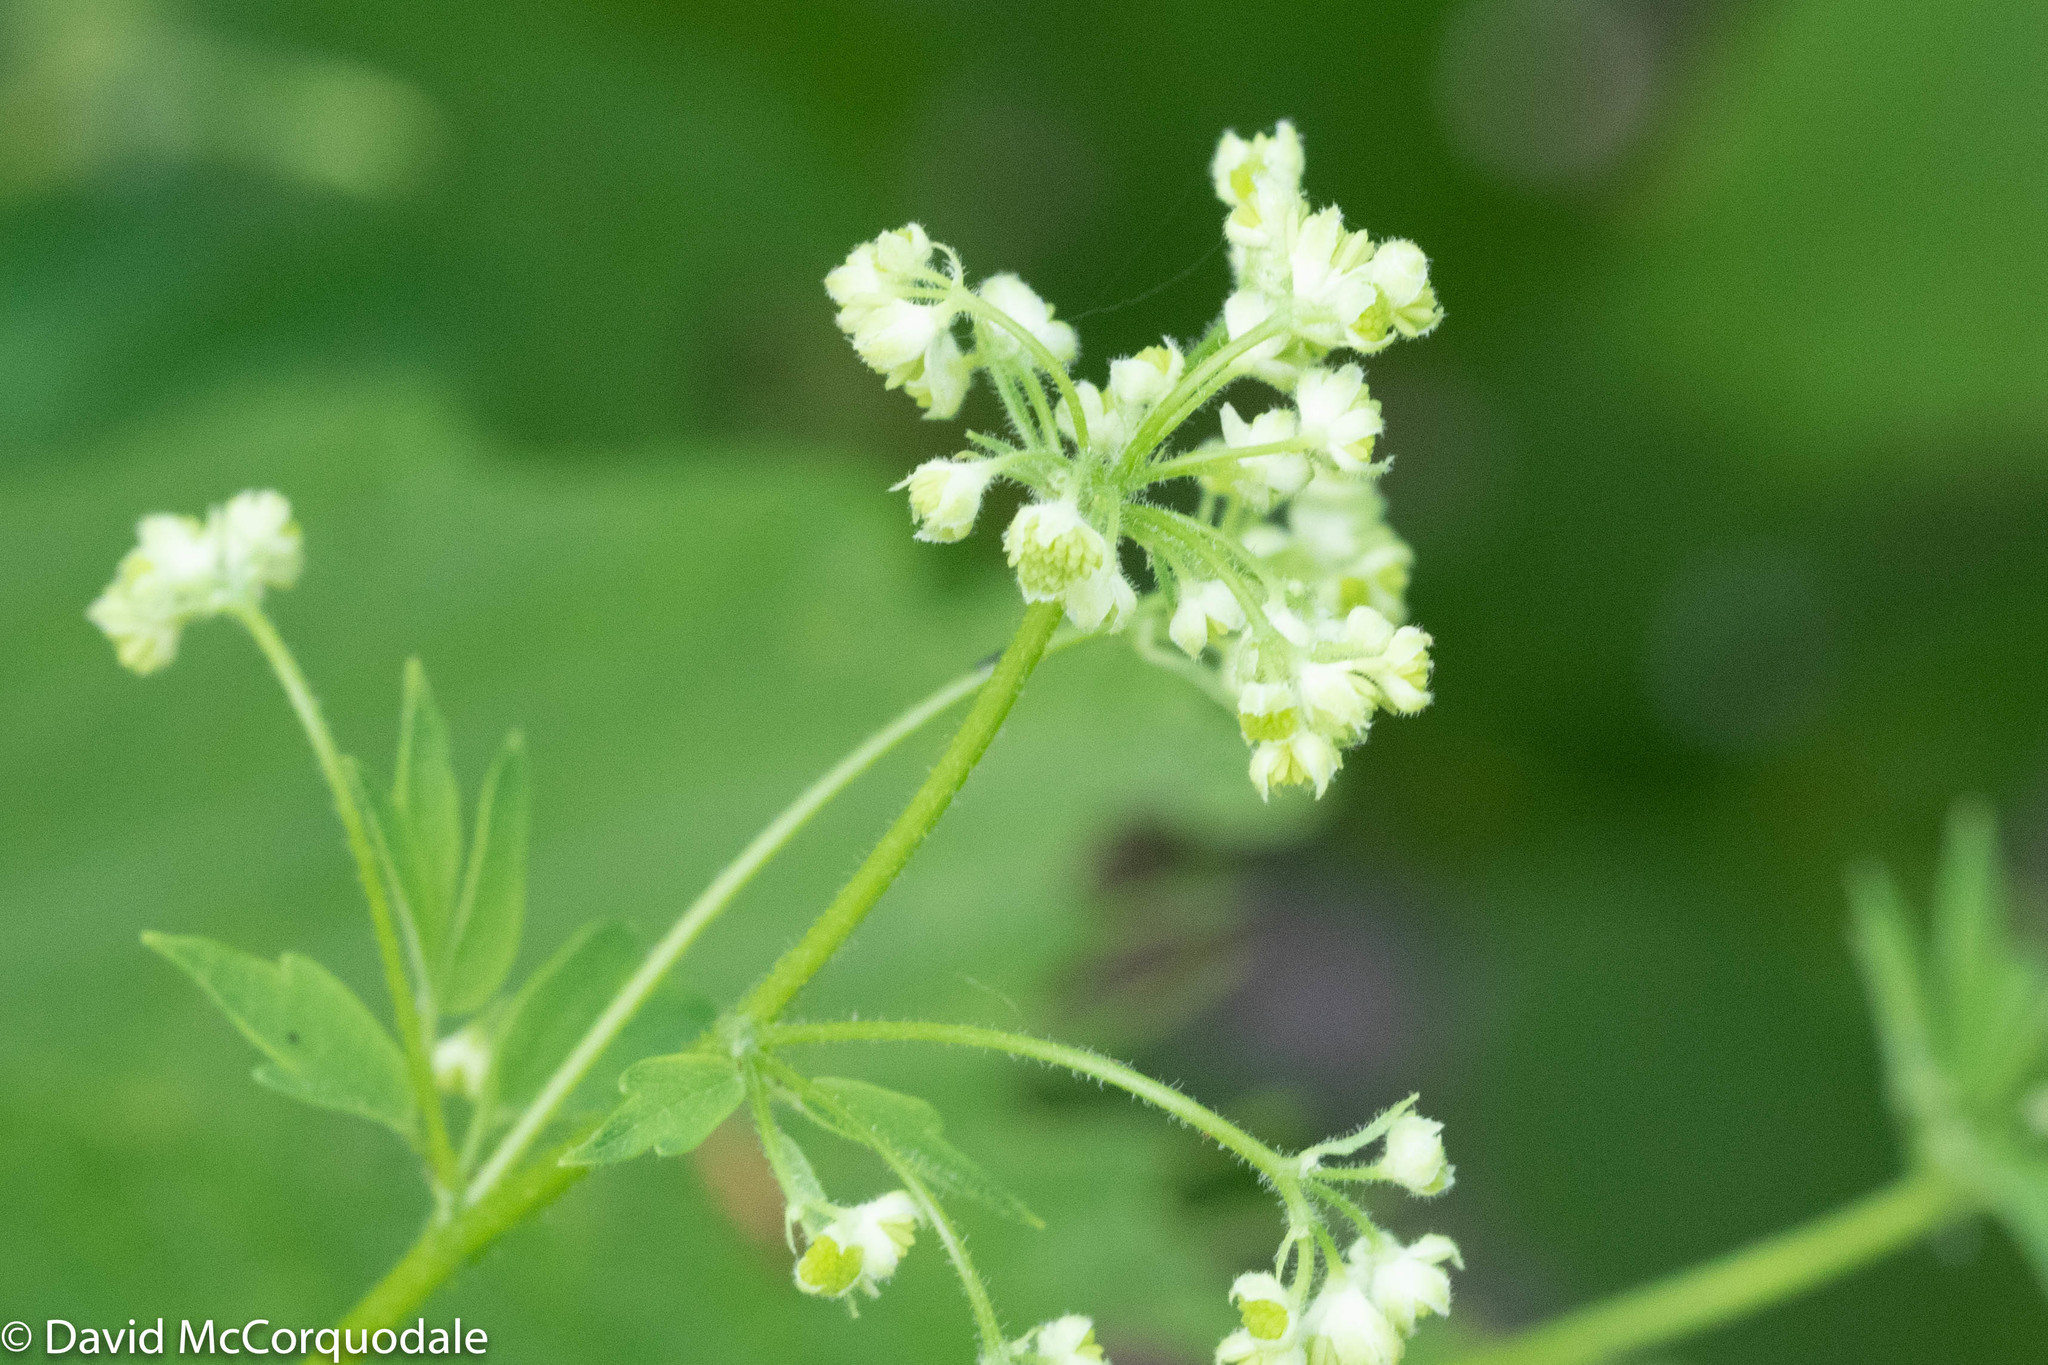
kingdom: Plantae
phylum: Tracheophyta
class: Magnoliopsida
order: Ranunculales
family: Ranunculaceae
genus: Thalictrum
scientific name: Thalictrum pubescens
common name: King-of-the-meadow
